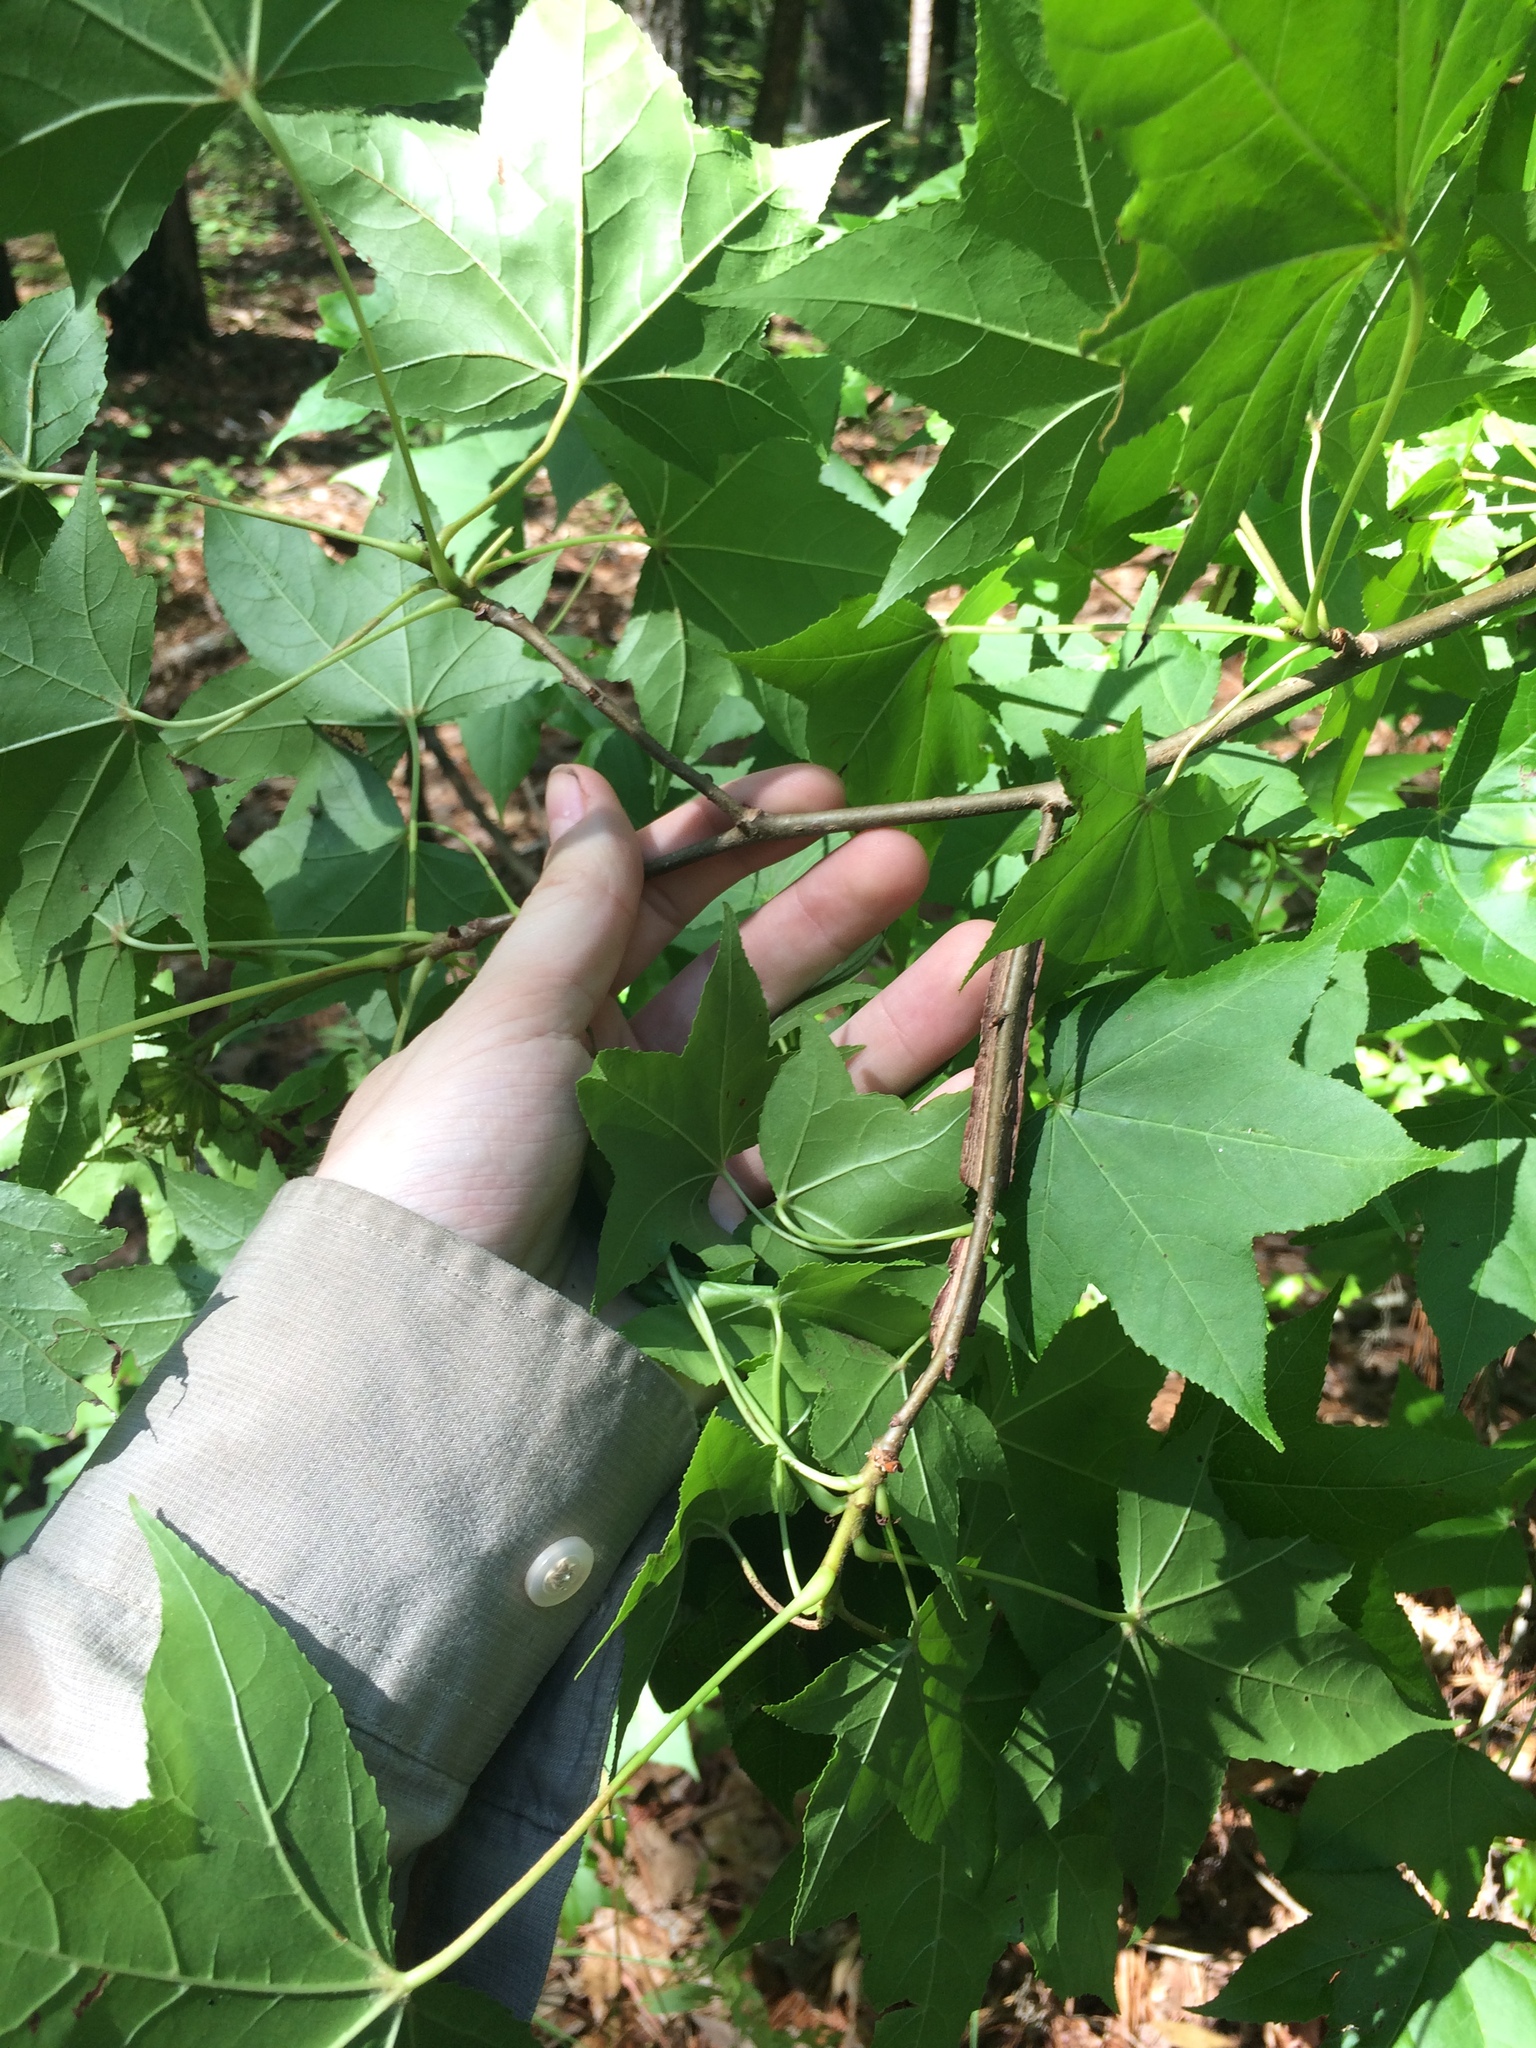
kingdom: Plantae
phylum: Tracheophyta
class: Magnoliopsida
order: Saxifragales
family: Altingiaceae
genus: Liquidambar
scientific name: Liquidambar styraciflua
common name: Sweet gum
